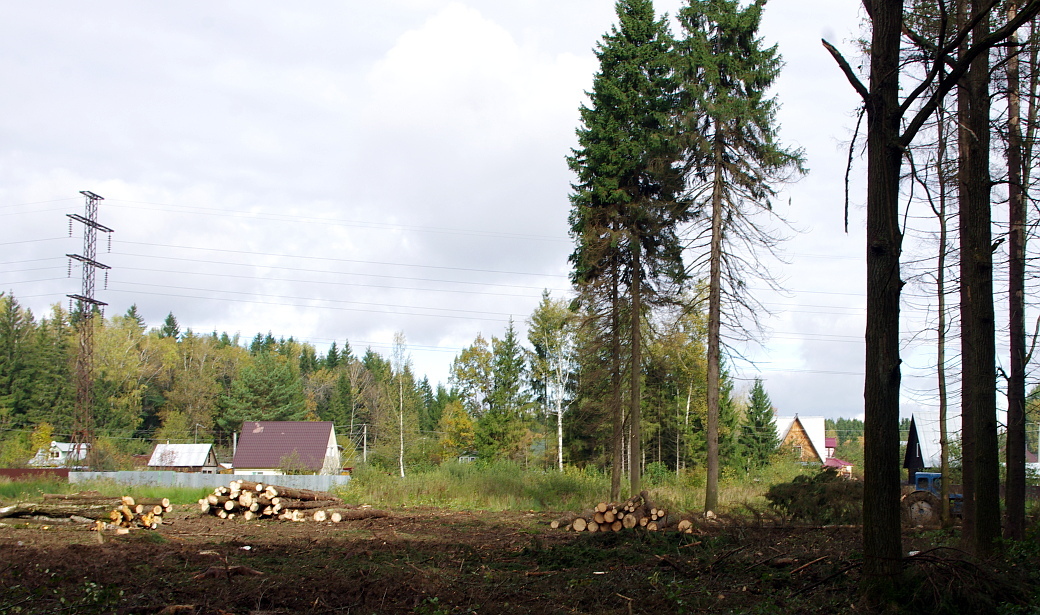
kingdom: Plantae
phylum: Tracheophyta
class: Pinopsida
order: Pinales
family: Pinaceae
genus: Picea
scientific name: Picea abies
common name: Norway spruce
